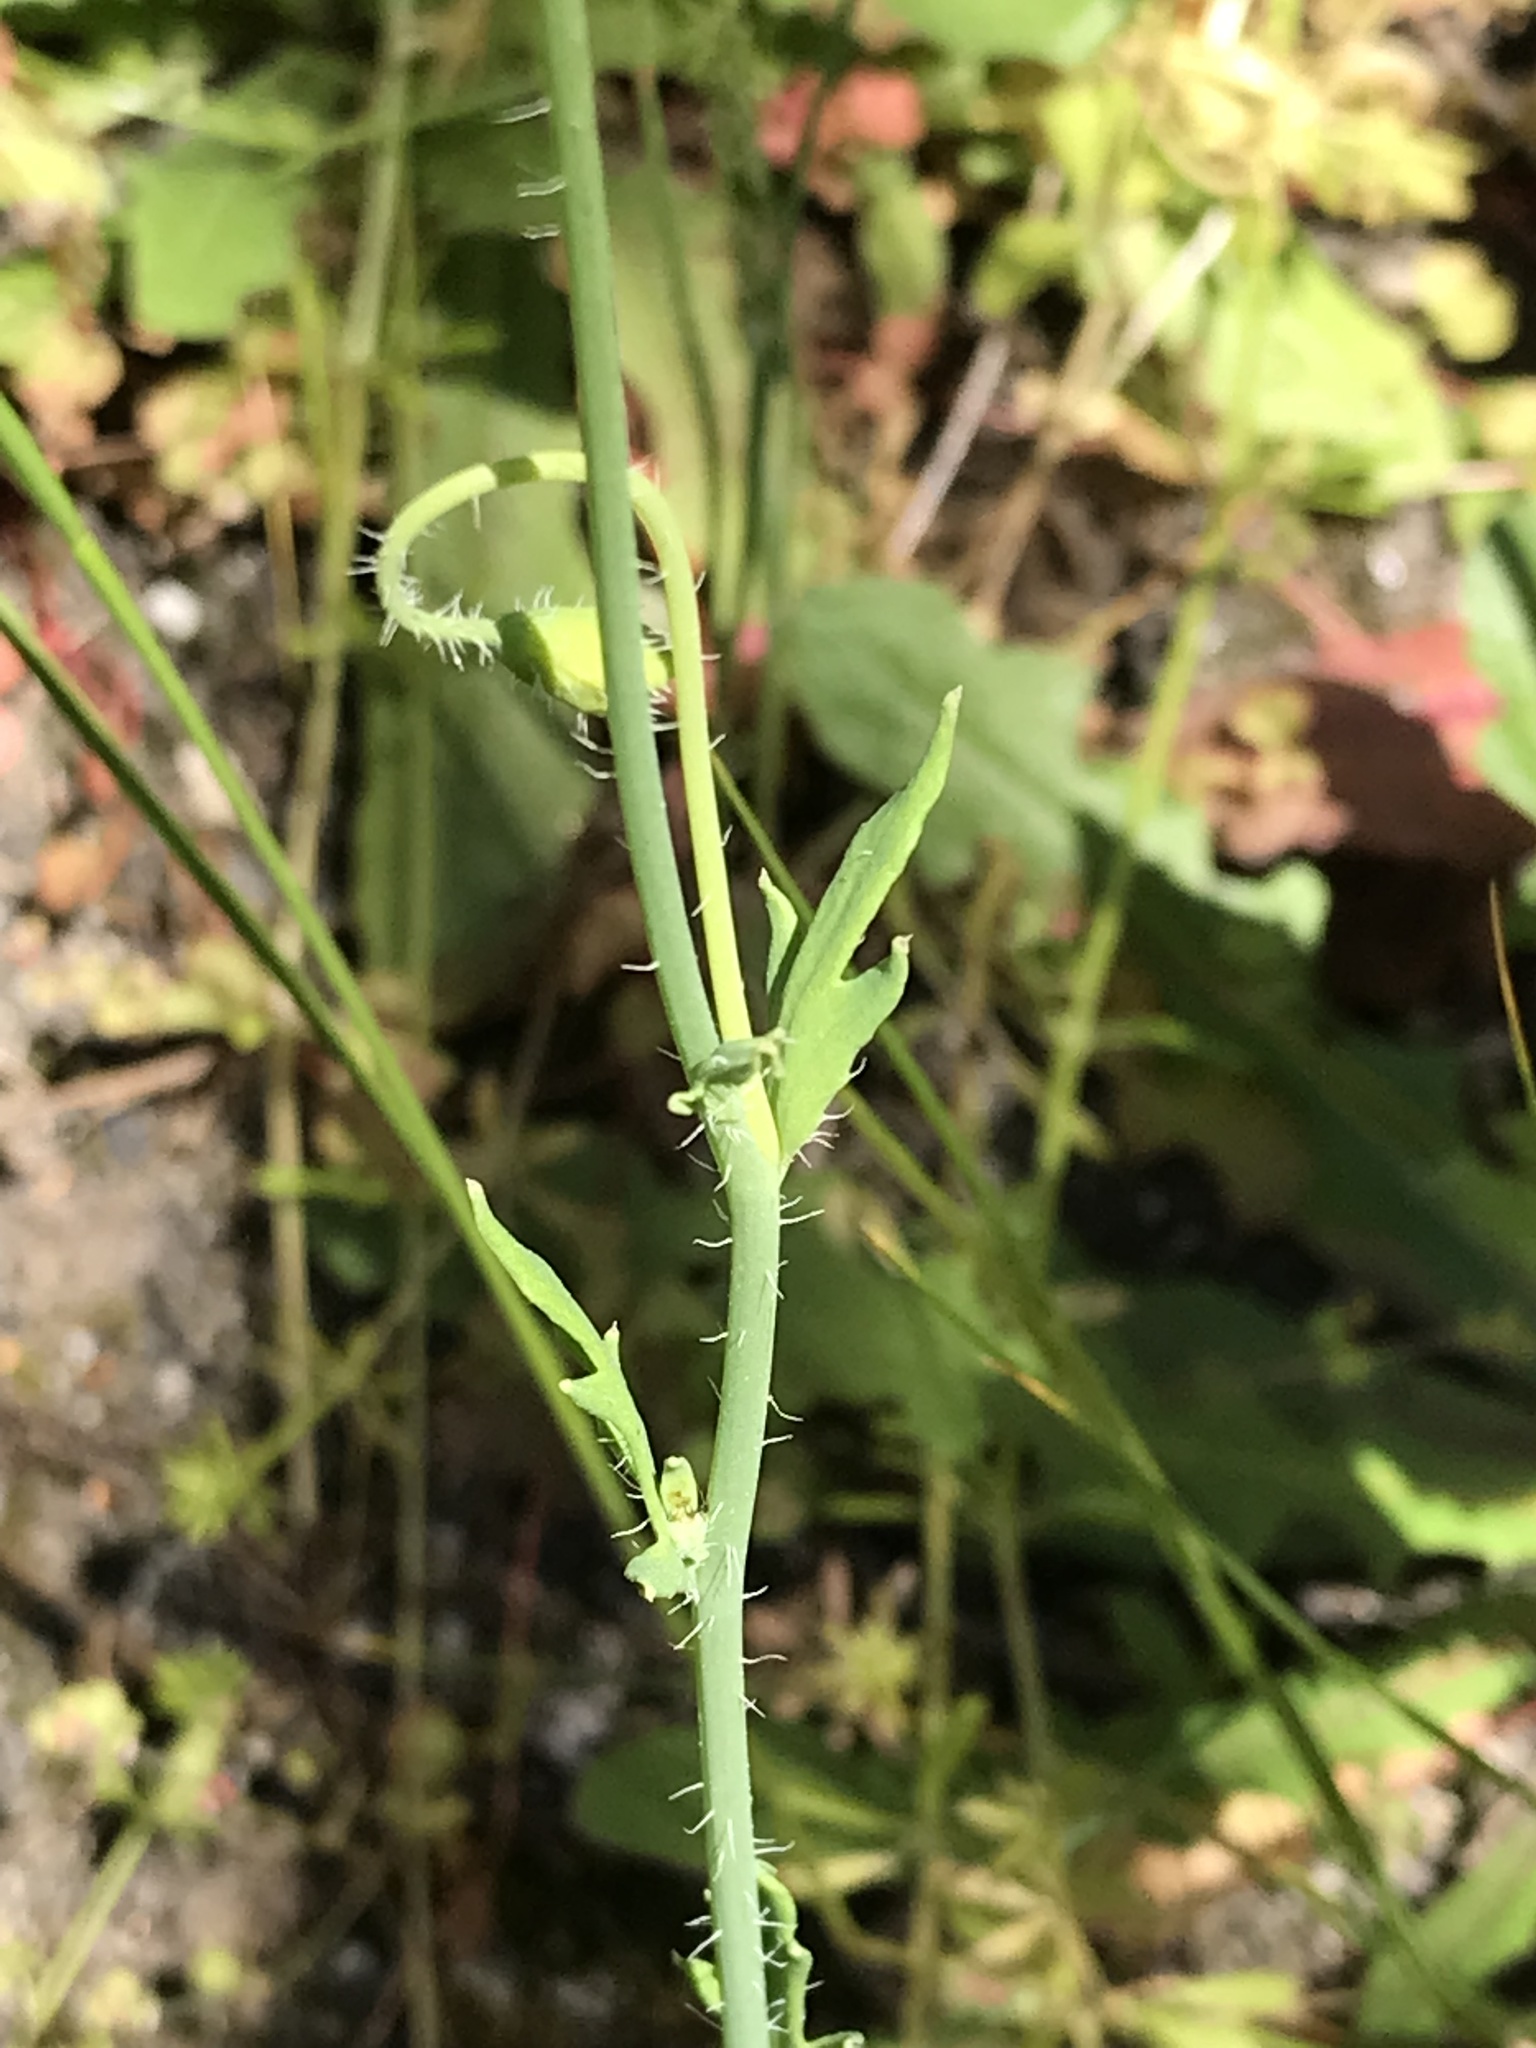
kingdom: Plantae
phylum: Tracheophyta
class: Magnoliopsida
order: Ranunculales
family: Papaveraceae
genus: Papaver
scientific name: Papaver californicum
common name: Fire poppy
